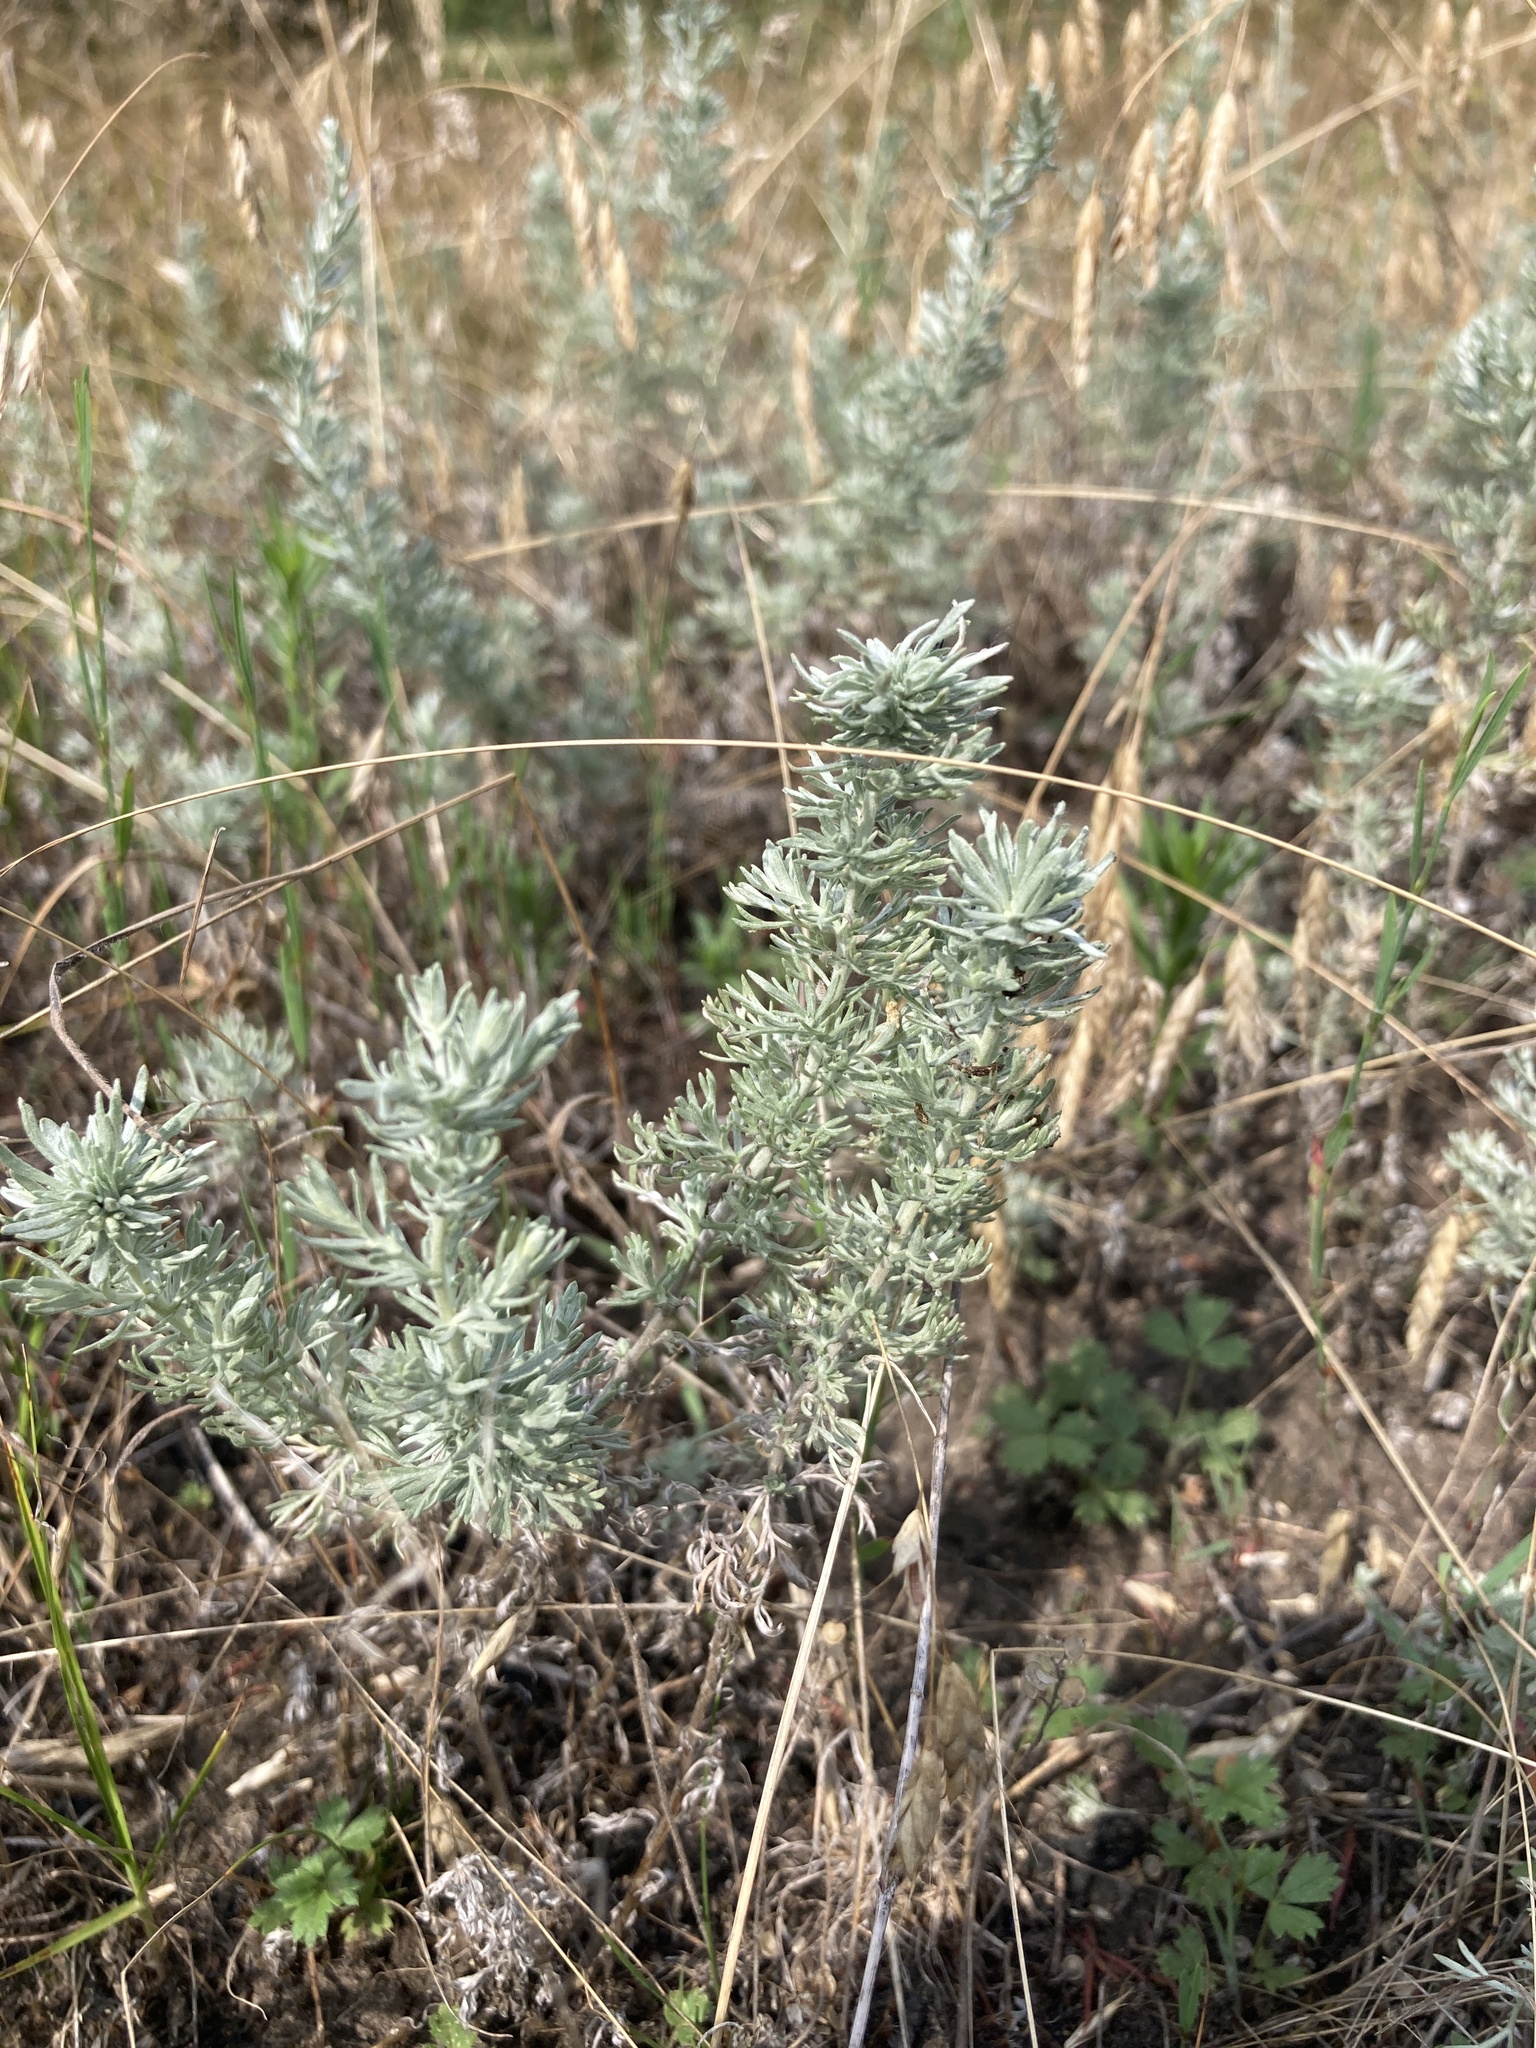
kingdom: Plantae
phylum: Tracheophyta
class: Magnoliopsida
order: Asterales
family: Asteraceae
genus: Artemisia
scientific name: Artemisia austriaca
